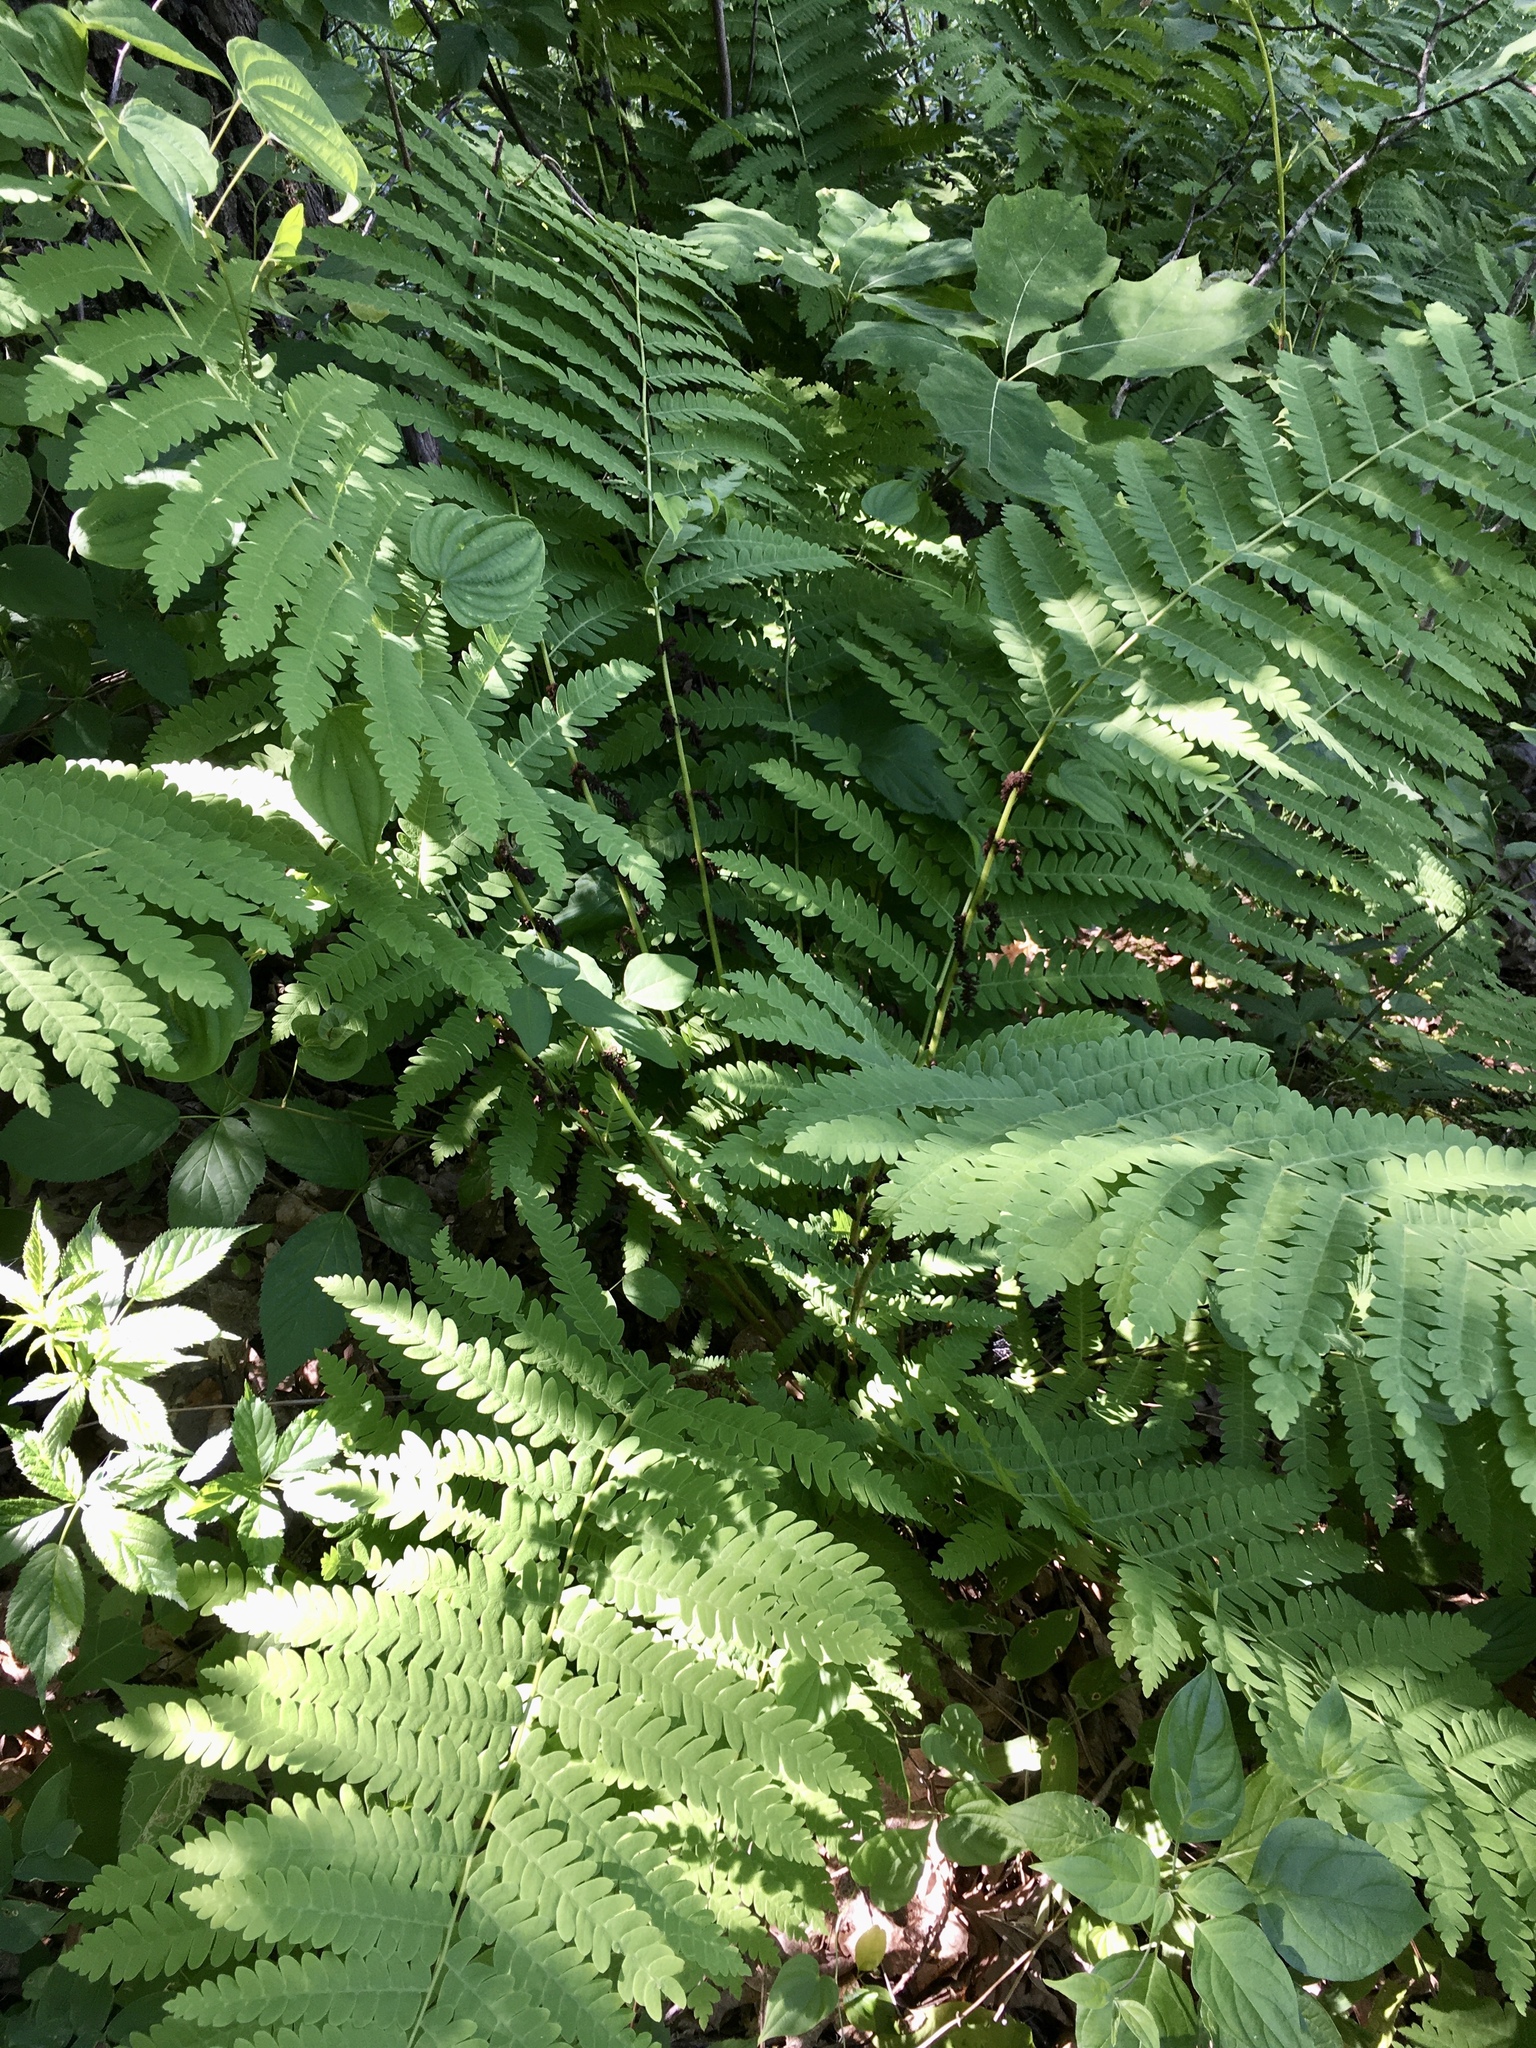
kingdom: Plantae
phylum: Tracheophyta
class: Polypodiopsida
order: Osmundales
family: Osmundaceae
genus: Claytosmunda
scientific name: Claytosmunda claytoniana
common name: Clayton's fern
